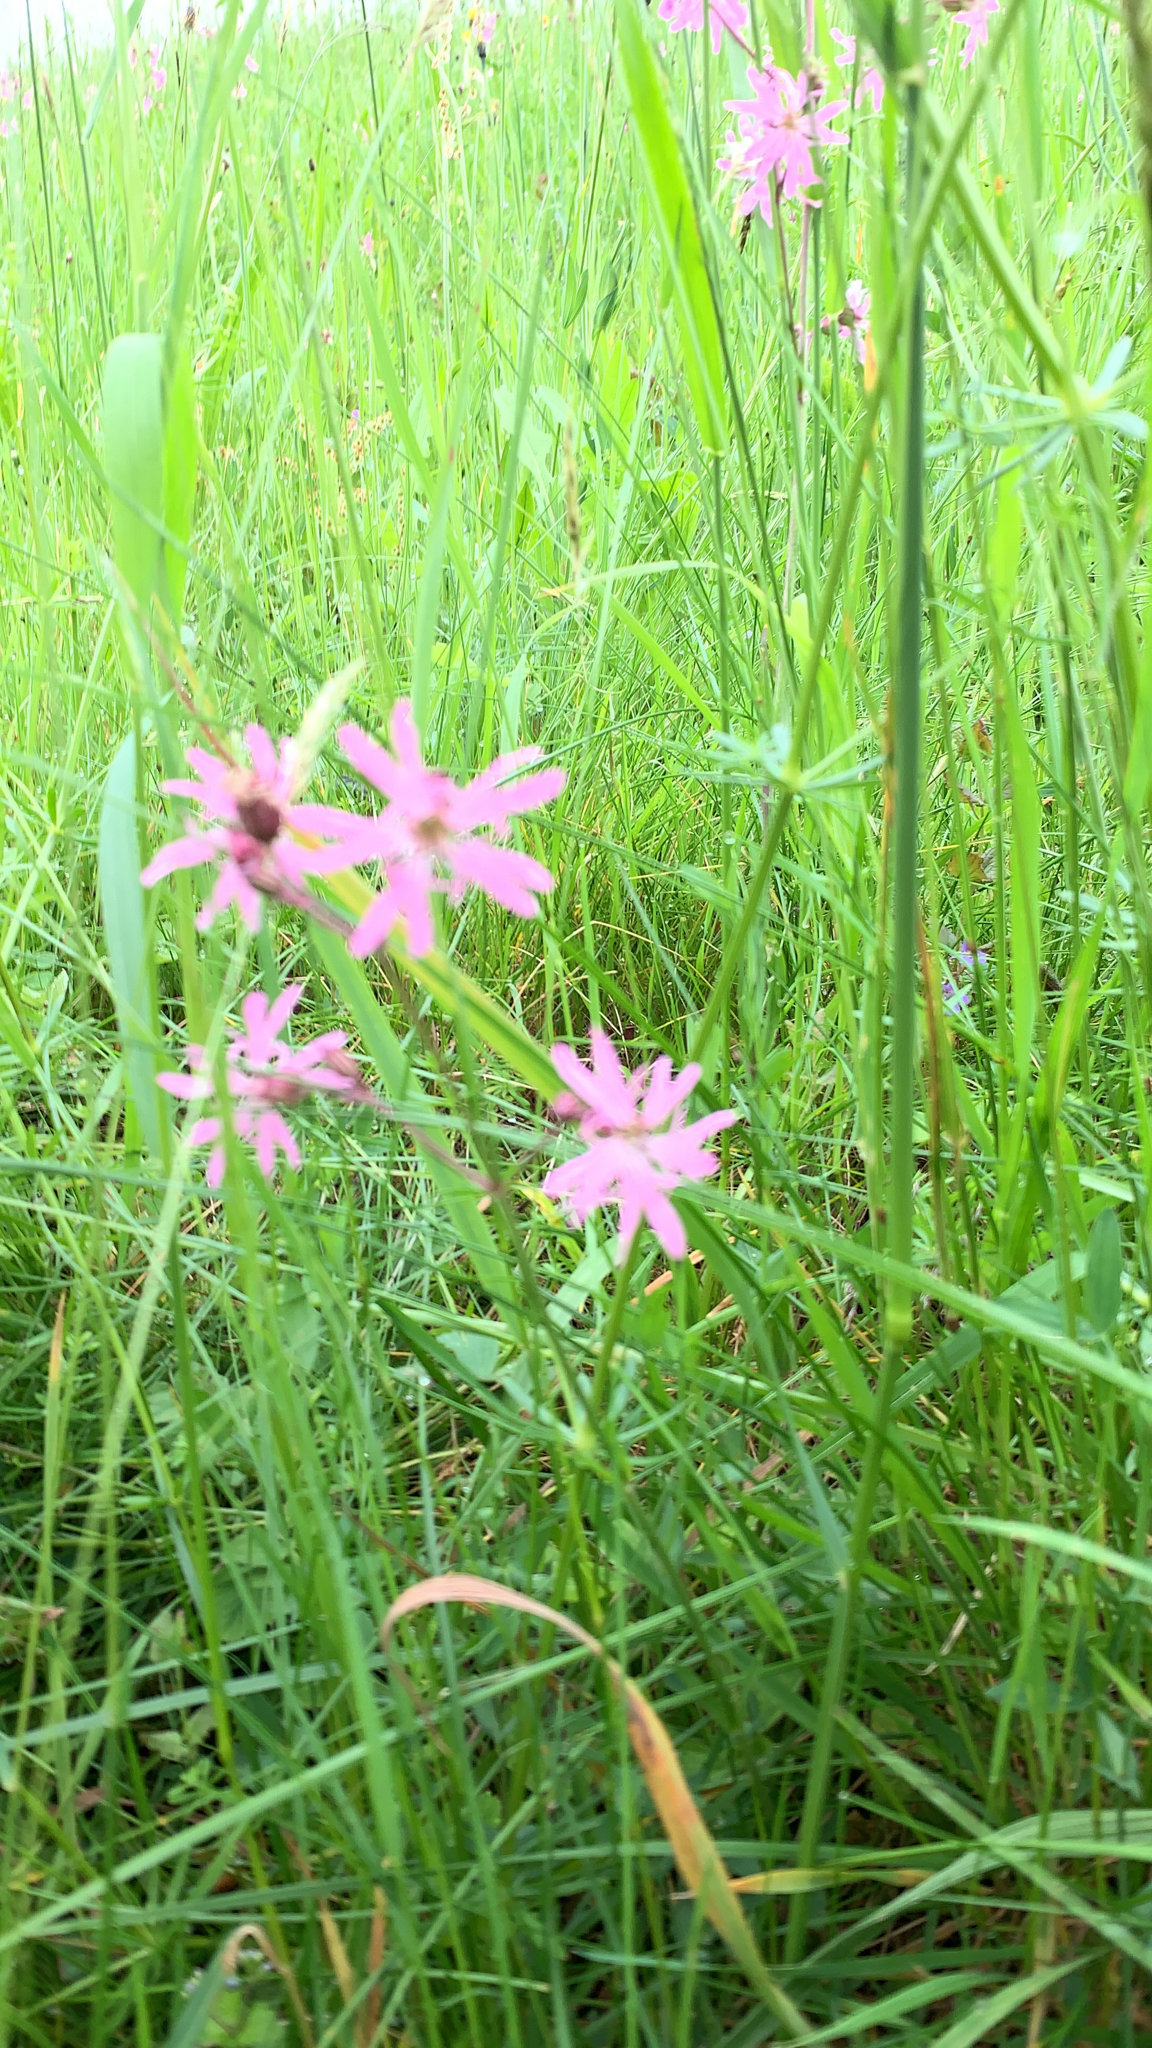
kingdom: Plantae
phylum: Tracheophyta
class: Magnoliopsida
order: Caryophyllales
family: Caryophyllaceae
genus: Silene
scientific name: Silene flos-cuculi
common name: Ragged-robin
